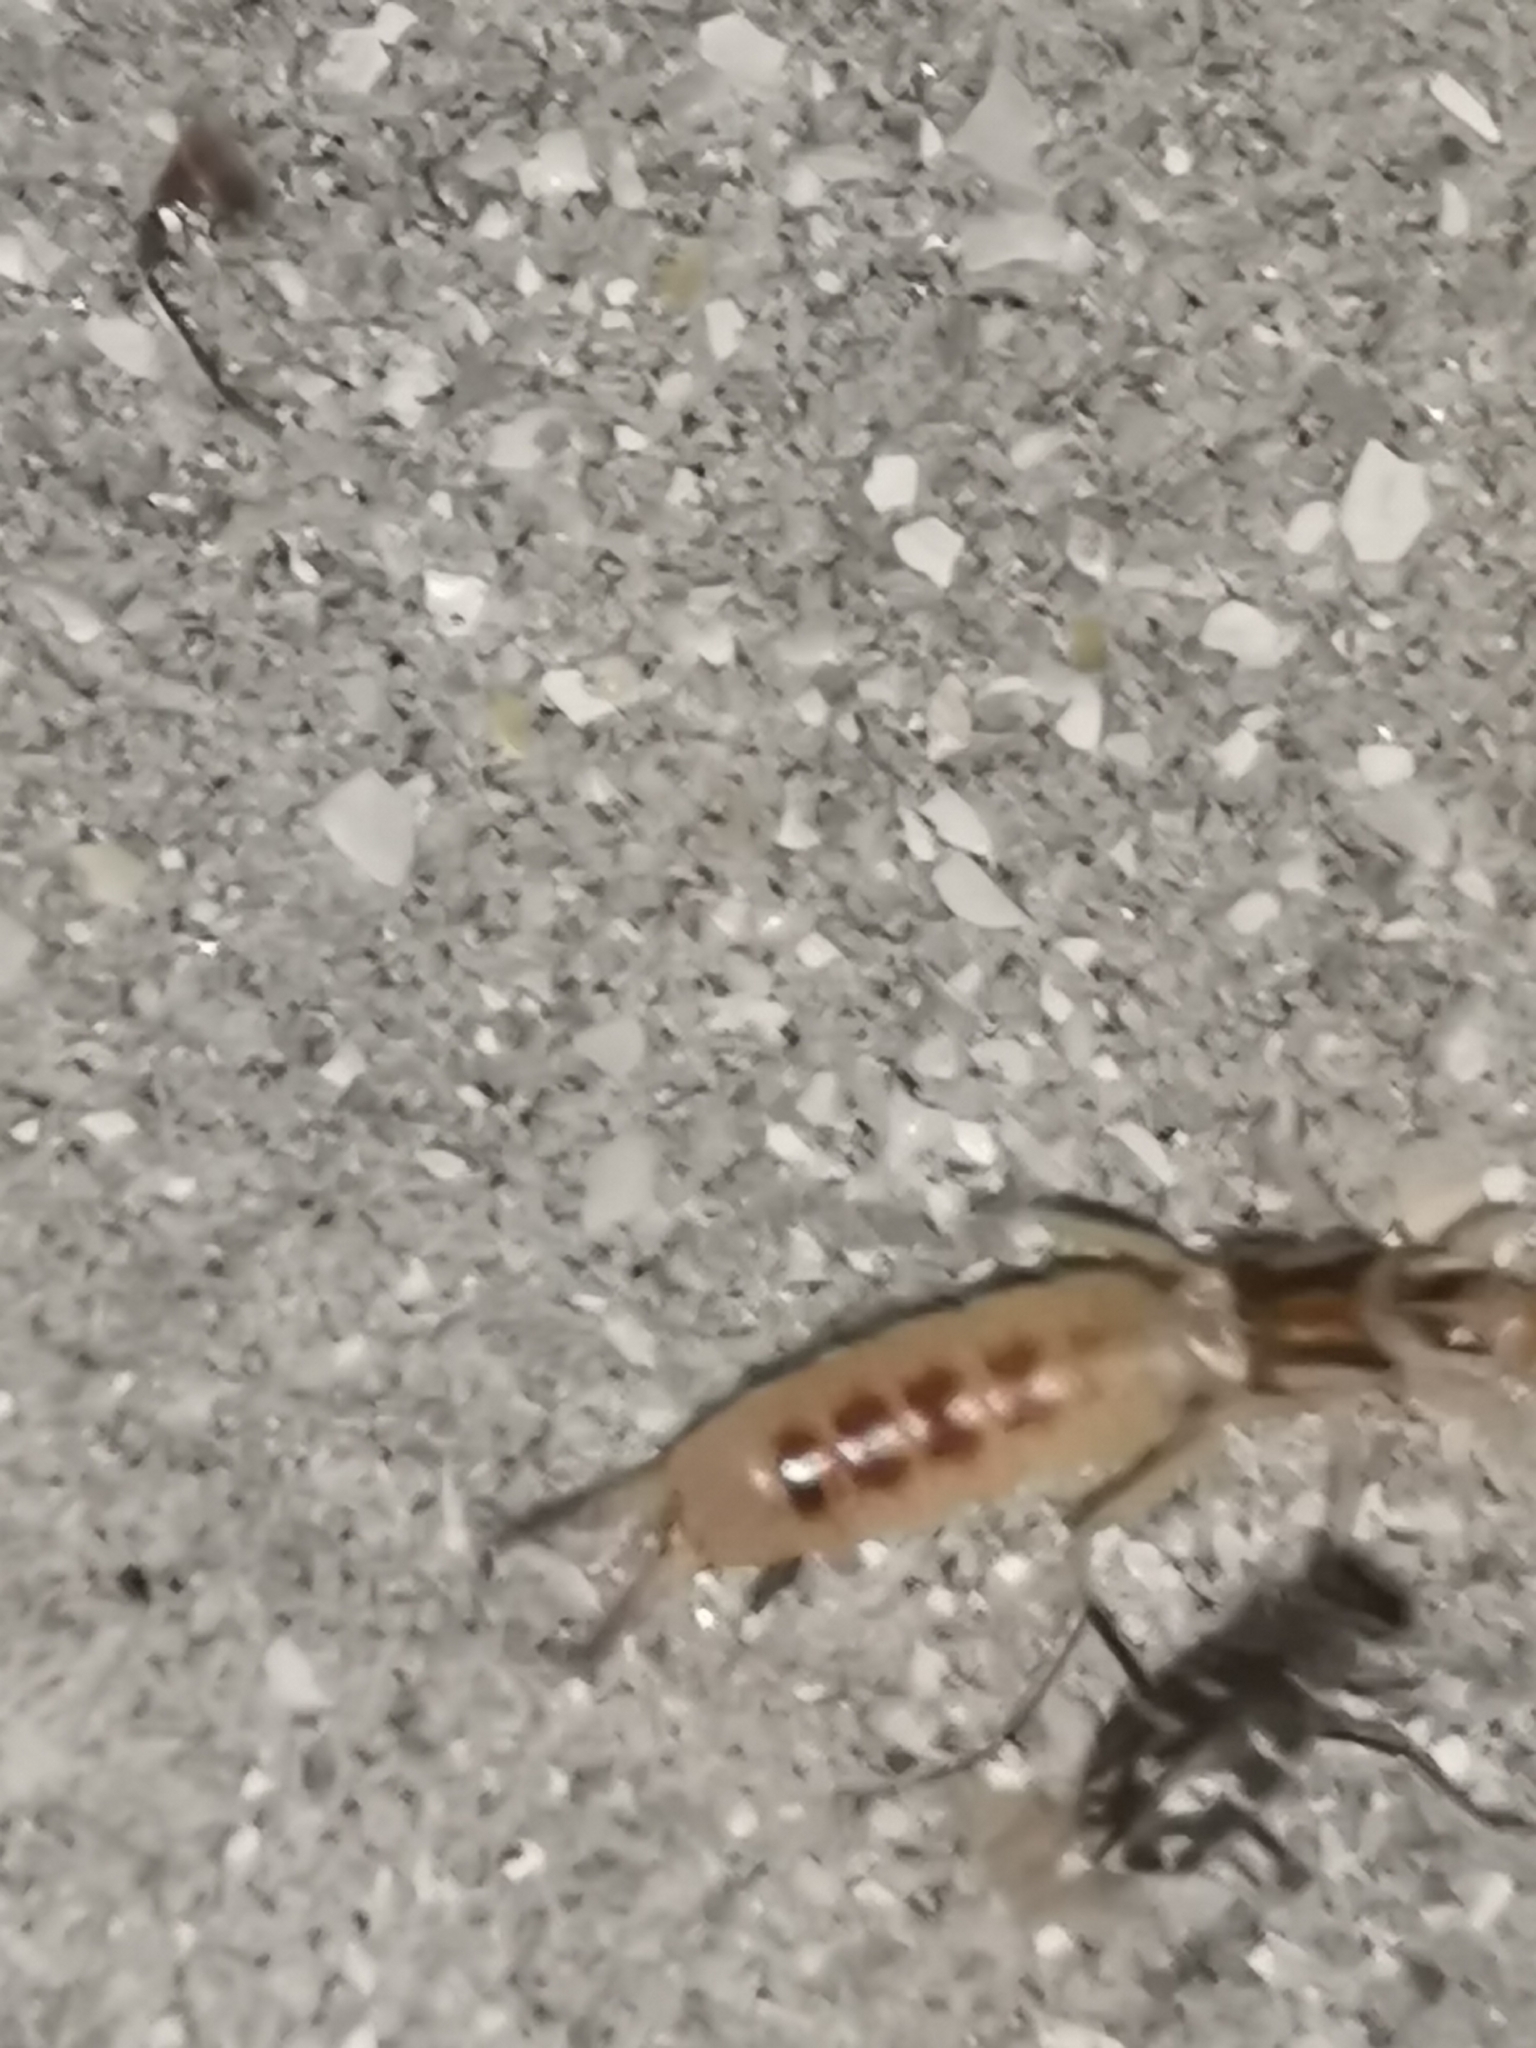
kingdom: Animalia
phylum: Arthropoda
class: Insecta
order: Dermaptera
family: Labiduridae
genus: Labidura
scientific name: Labidura riparia
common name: Striped earwig
